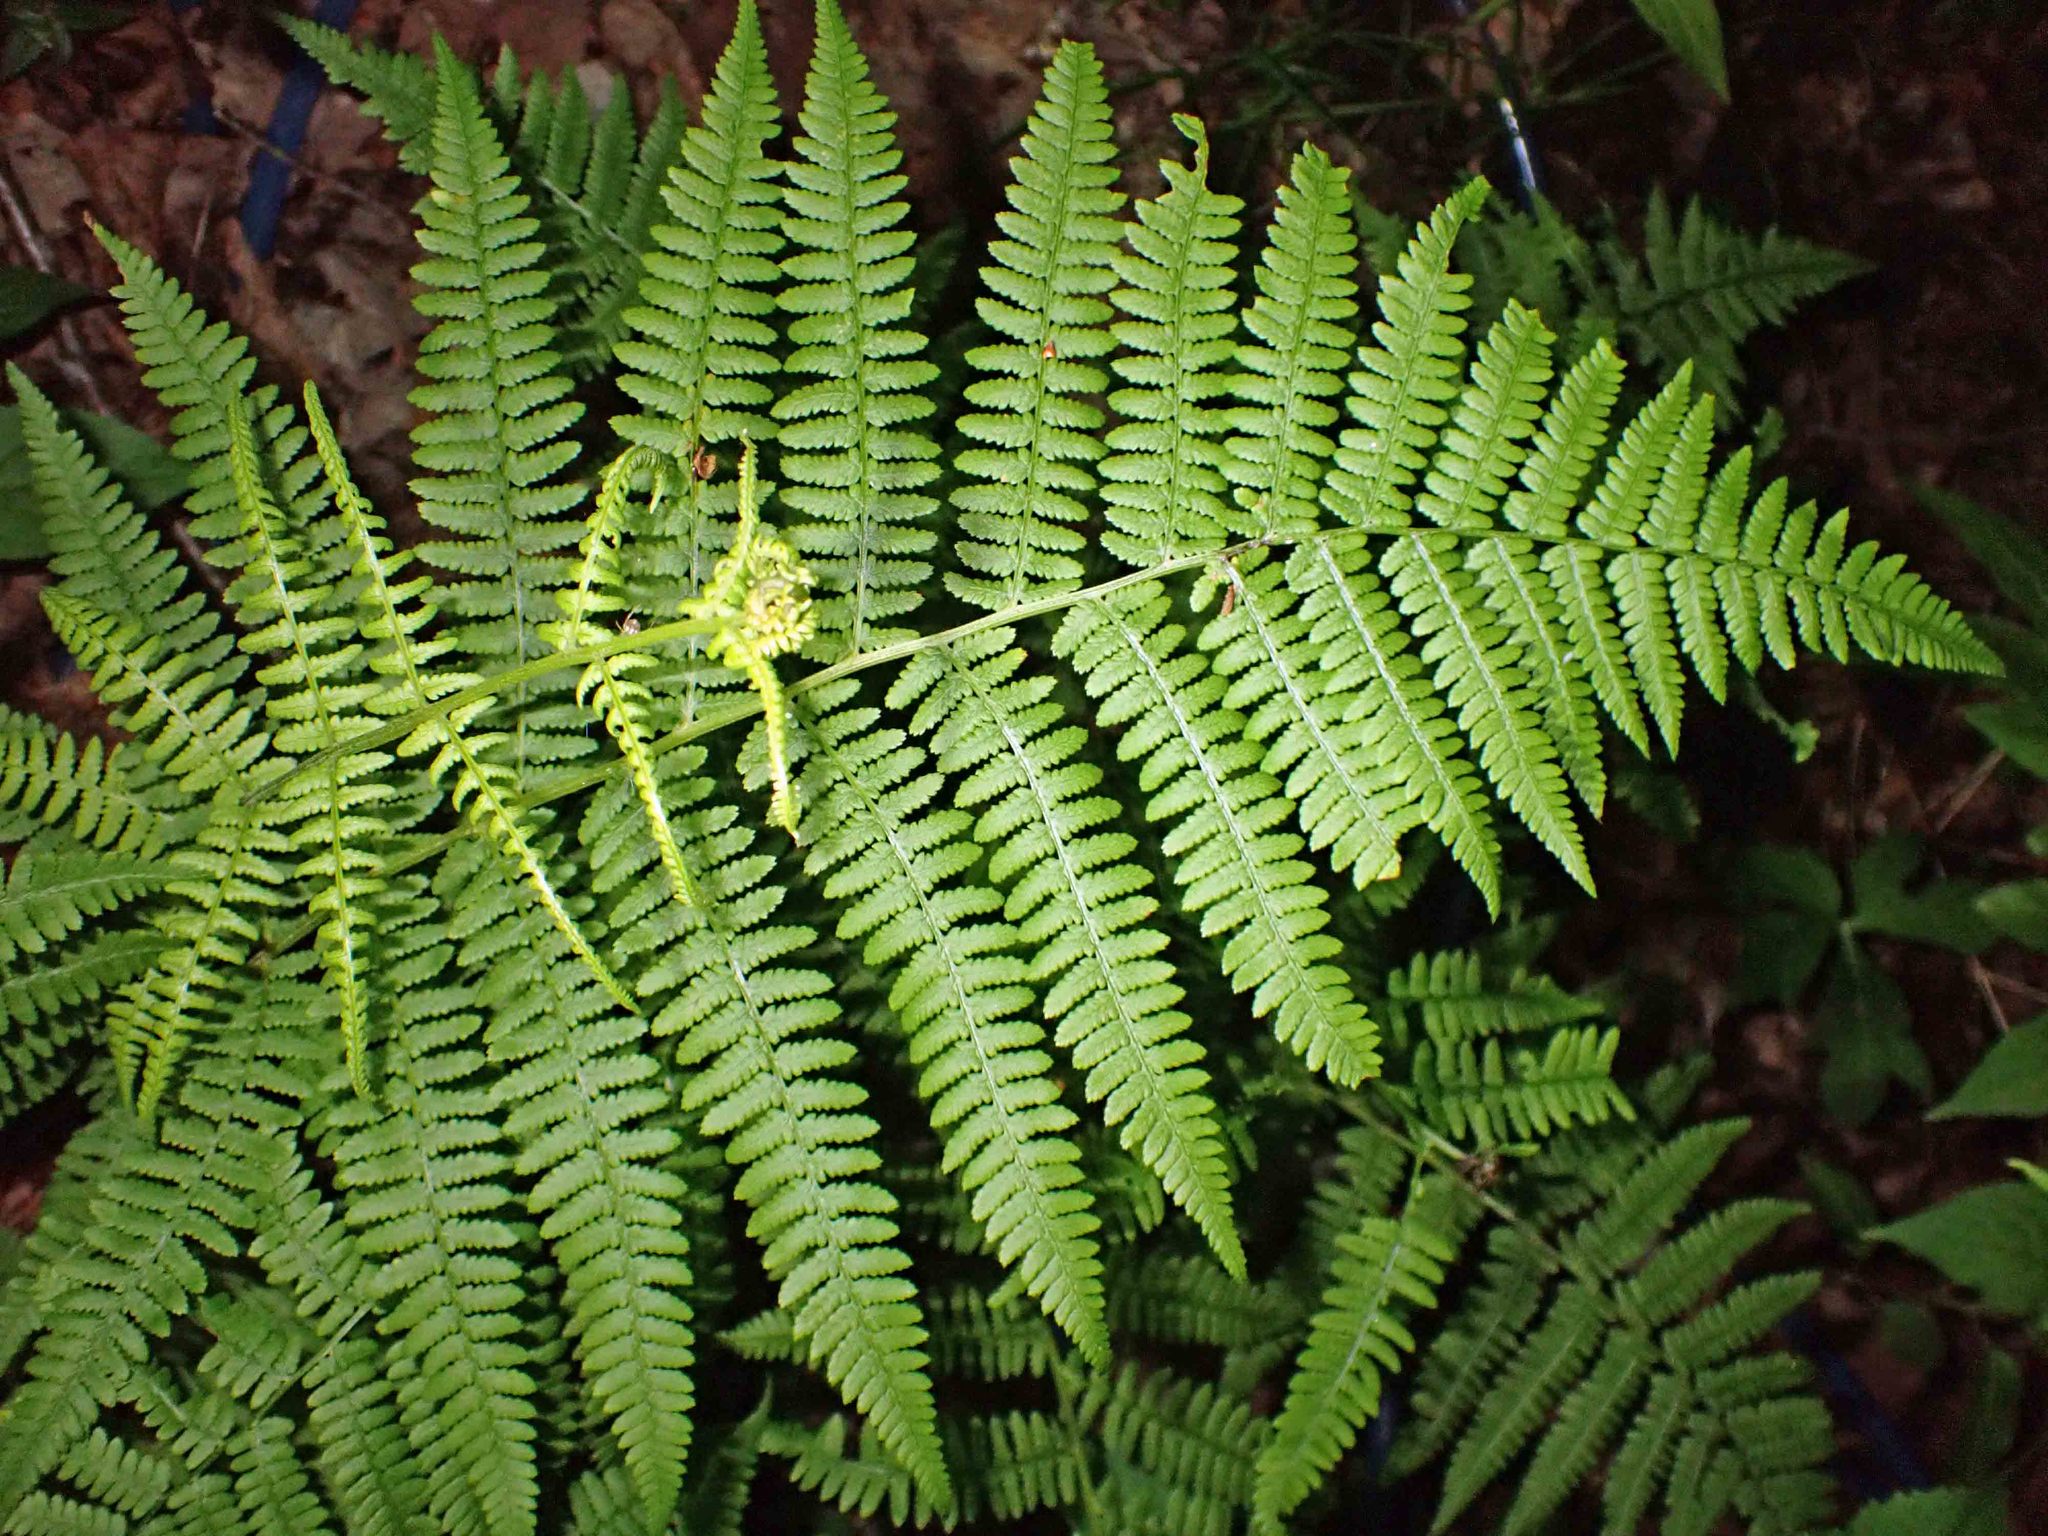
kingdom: Plantae
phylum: Tracheophyta
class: Polypodiopsida
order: Polypodiales
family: Athyriaceae
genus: Athyrium
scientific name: Athyrium angustum
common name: Northern lady fern
